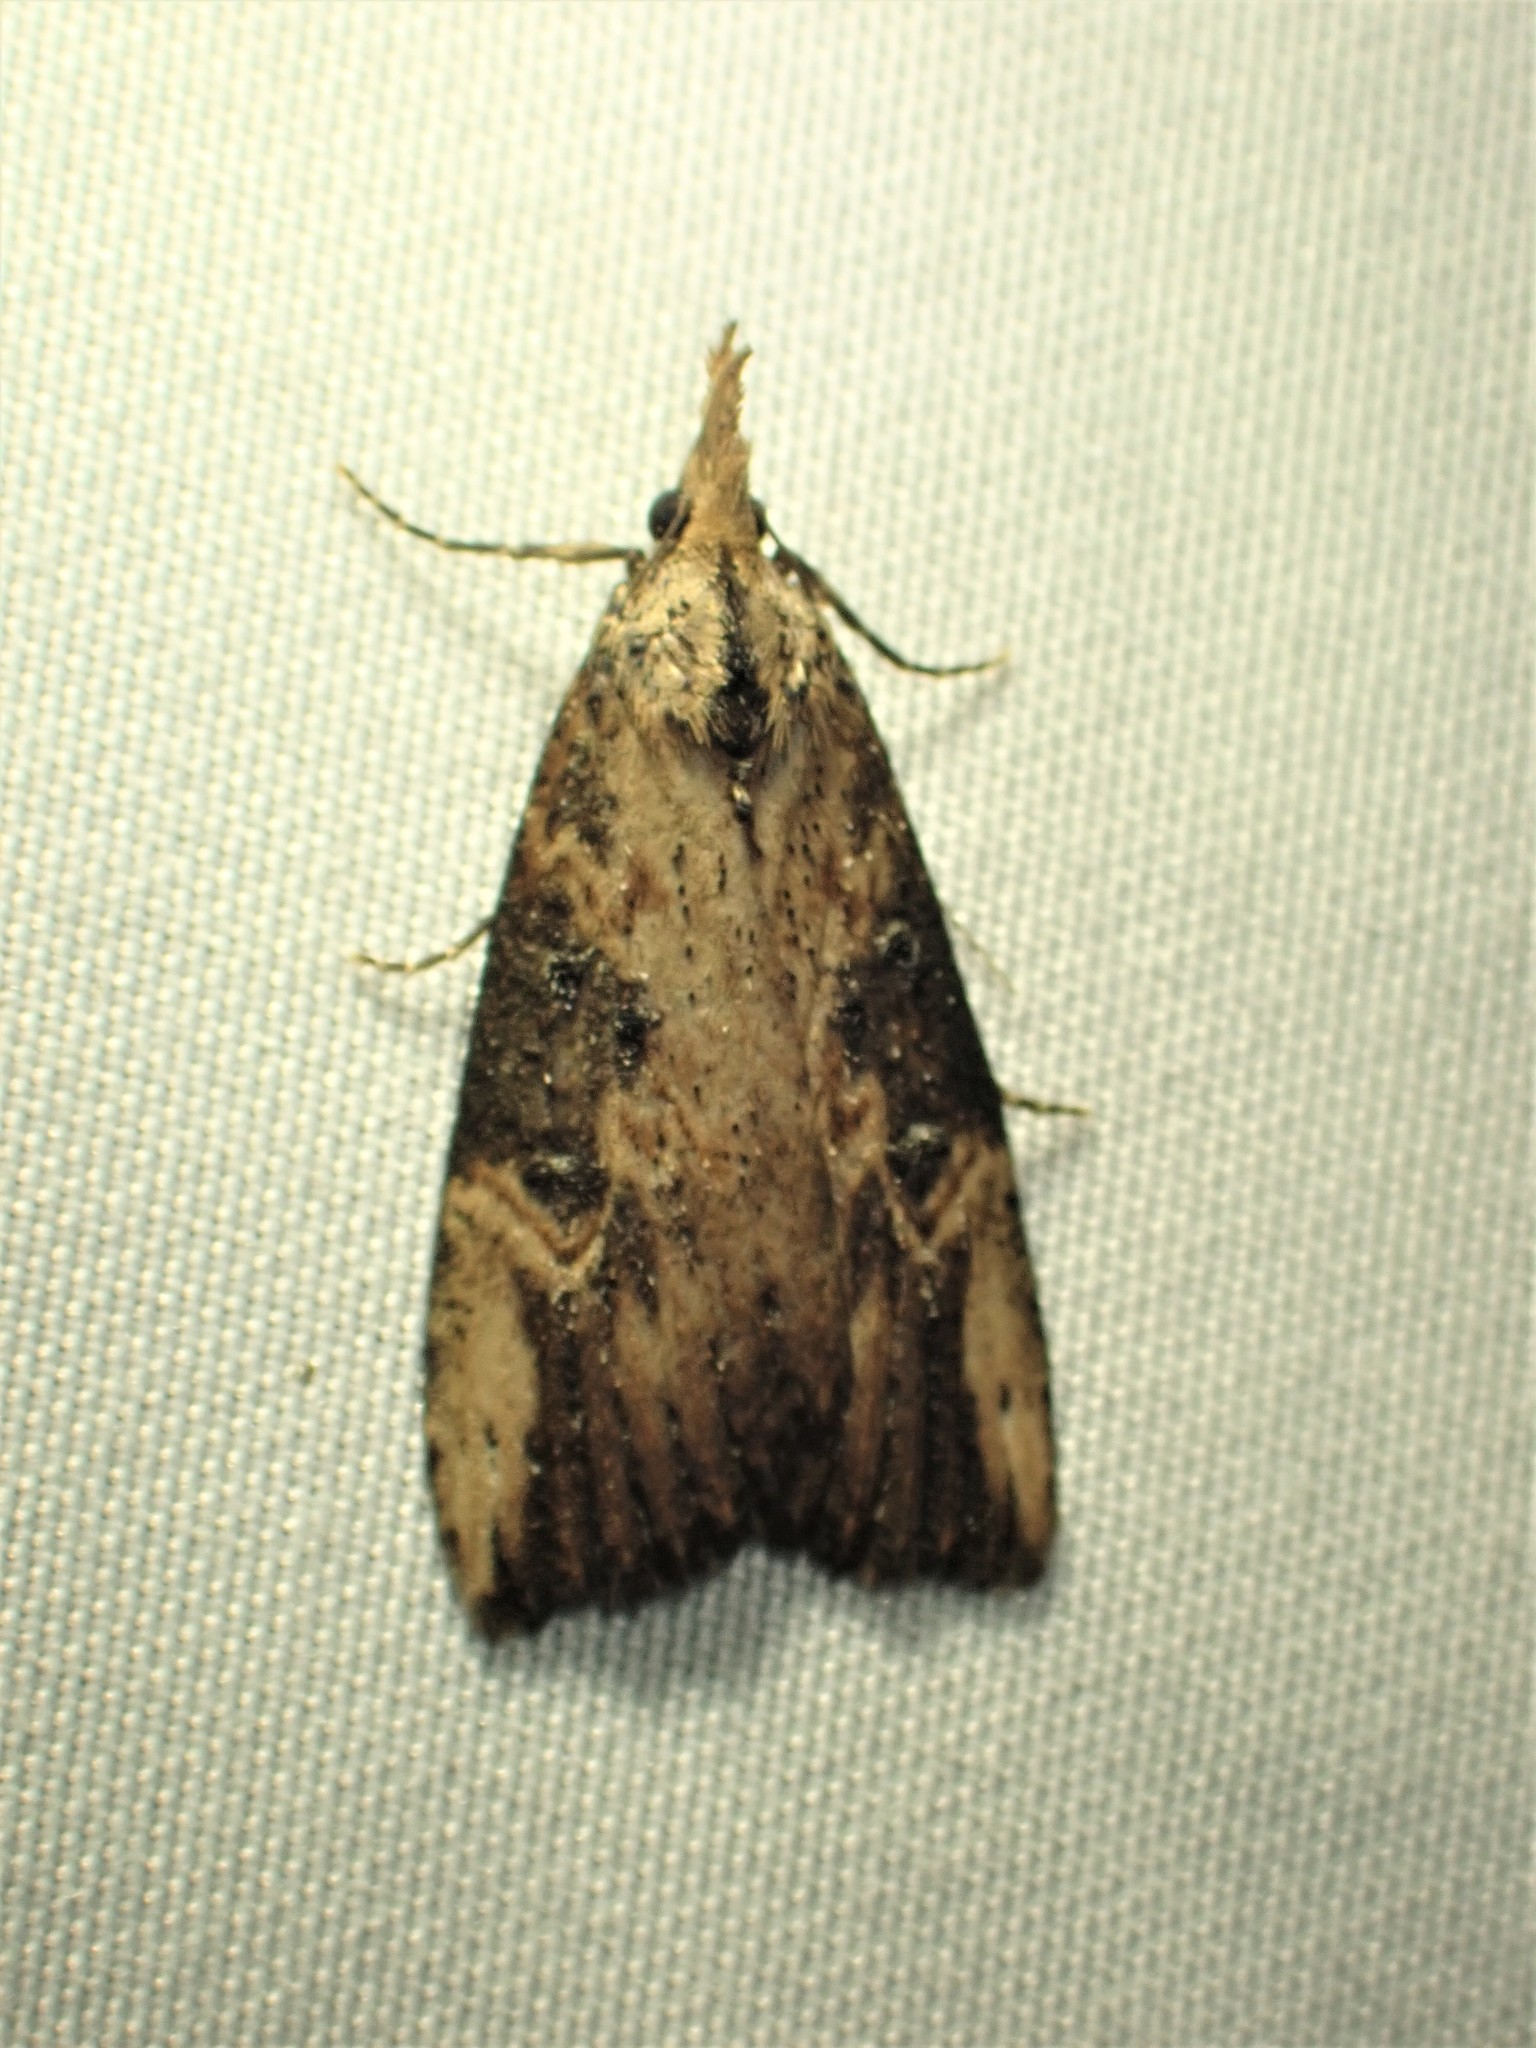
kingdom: Animalia
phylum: Arthropoda
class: Insecta
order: Lepidoptera
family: Erebidae
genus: Hypena
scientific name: Hypena humuli
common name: Hop vine snout
